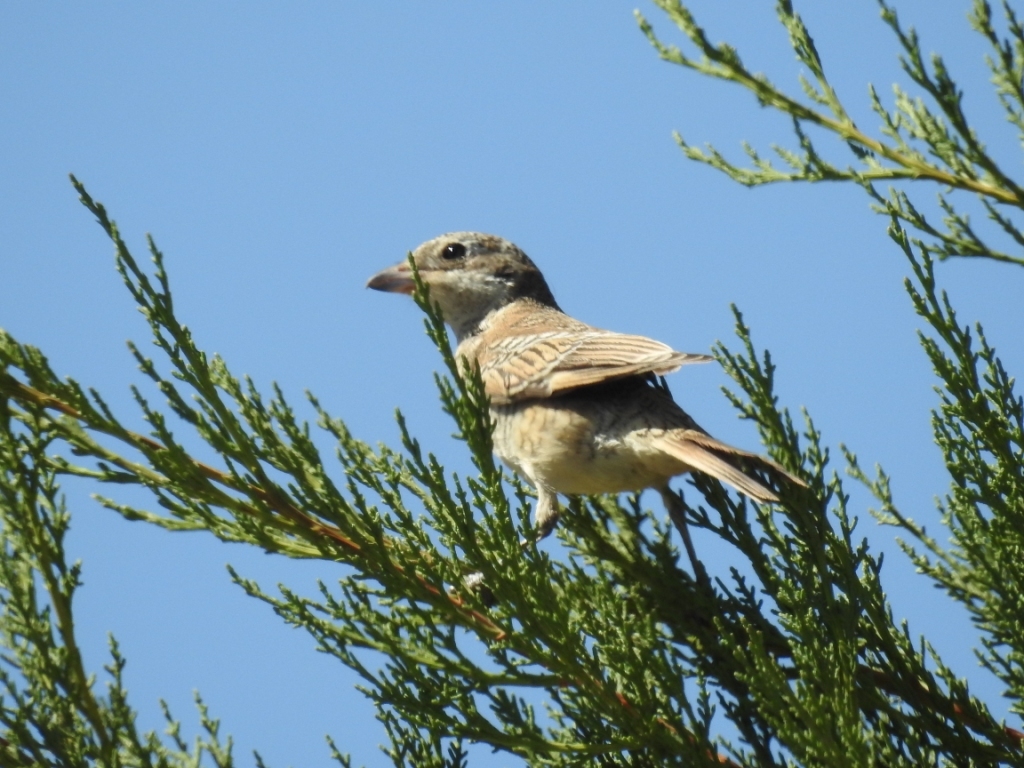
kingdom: Animalia
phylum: Chordata
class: Aves
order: Passeriformes
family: Laniidae
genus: Lanius
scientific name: Lanius senator
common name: Woodchat shrike
